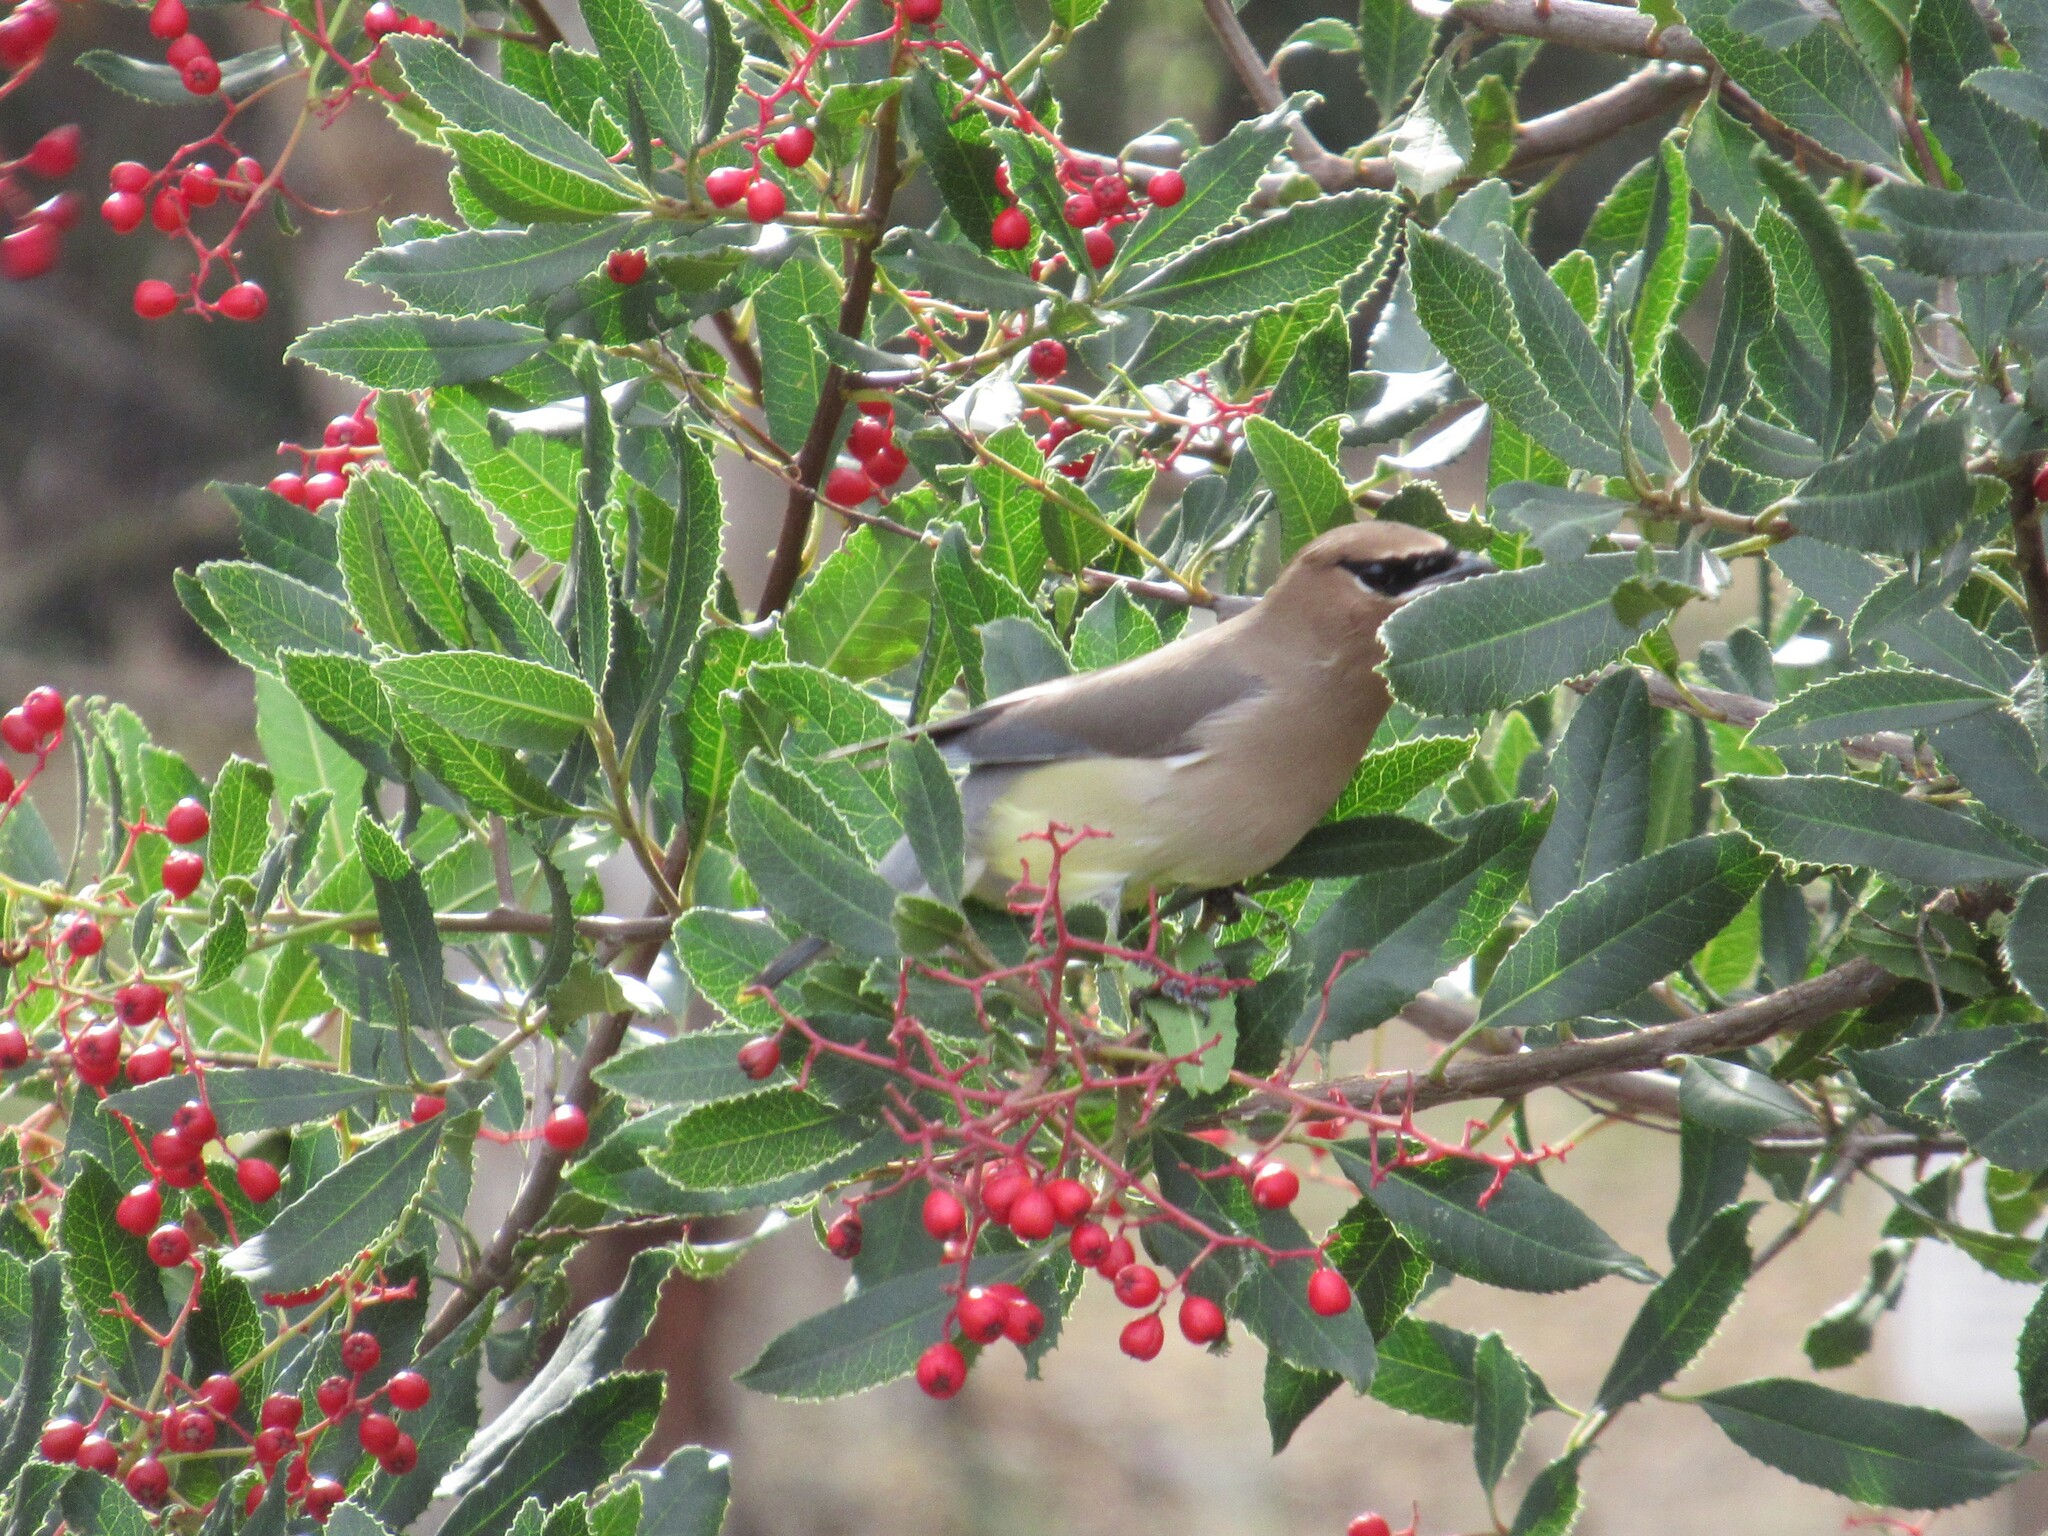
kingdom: Animalia
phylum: Chordata
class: Aves
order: Passeriformes
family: Bombycillidae
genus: Bombycilla
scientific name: Bombycilla cedrorum
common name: Cedar waxwing
